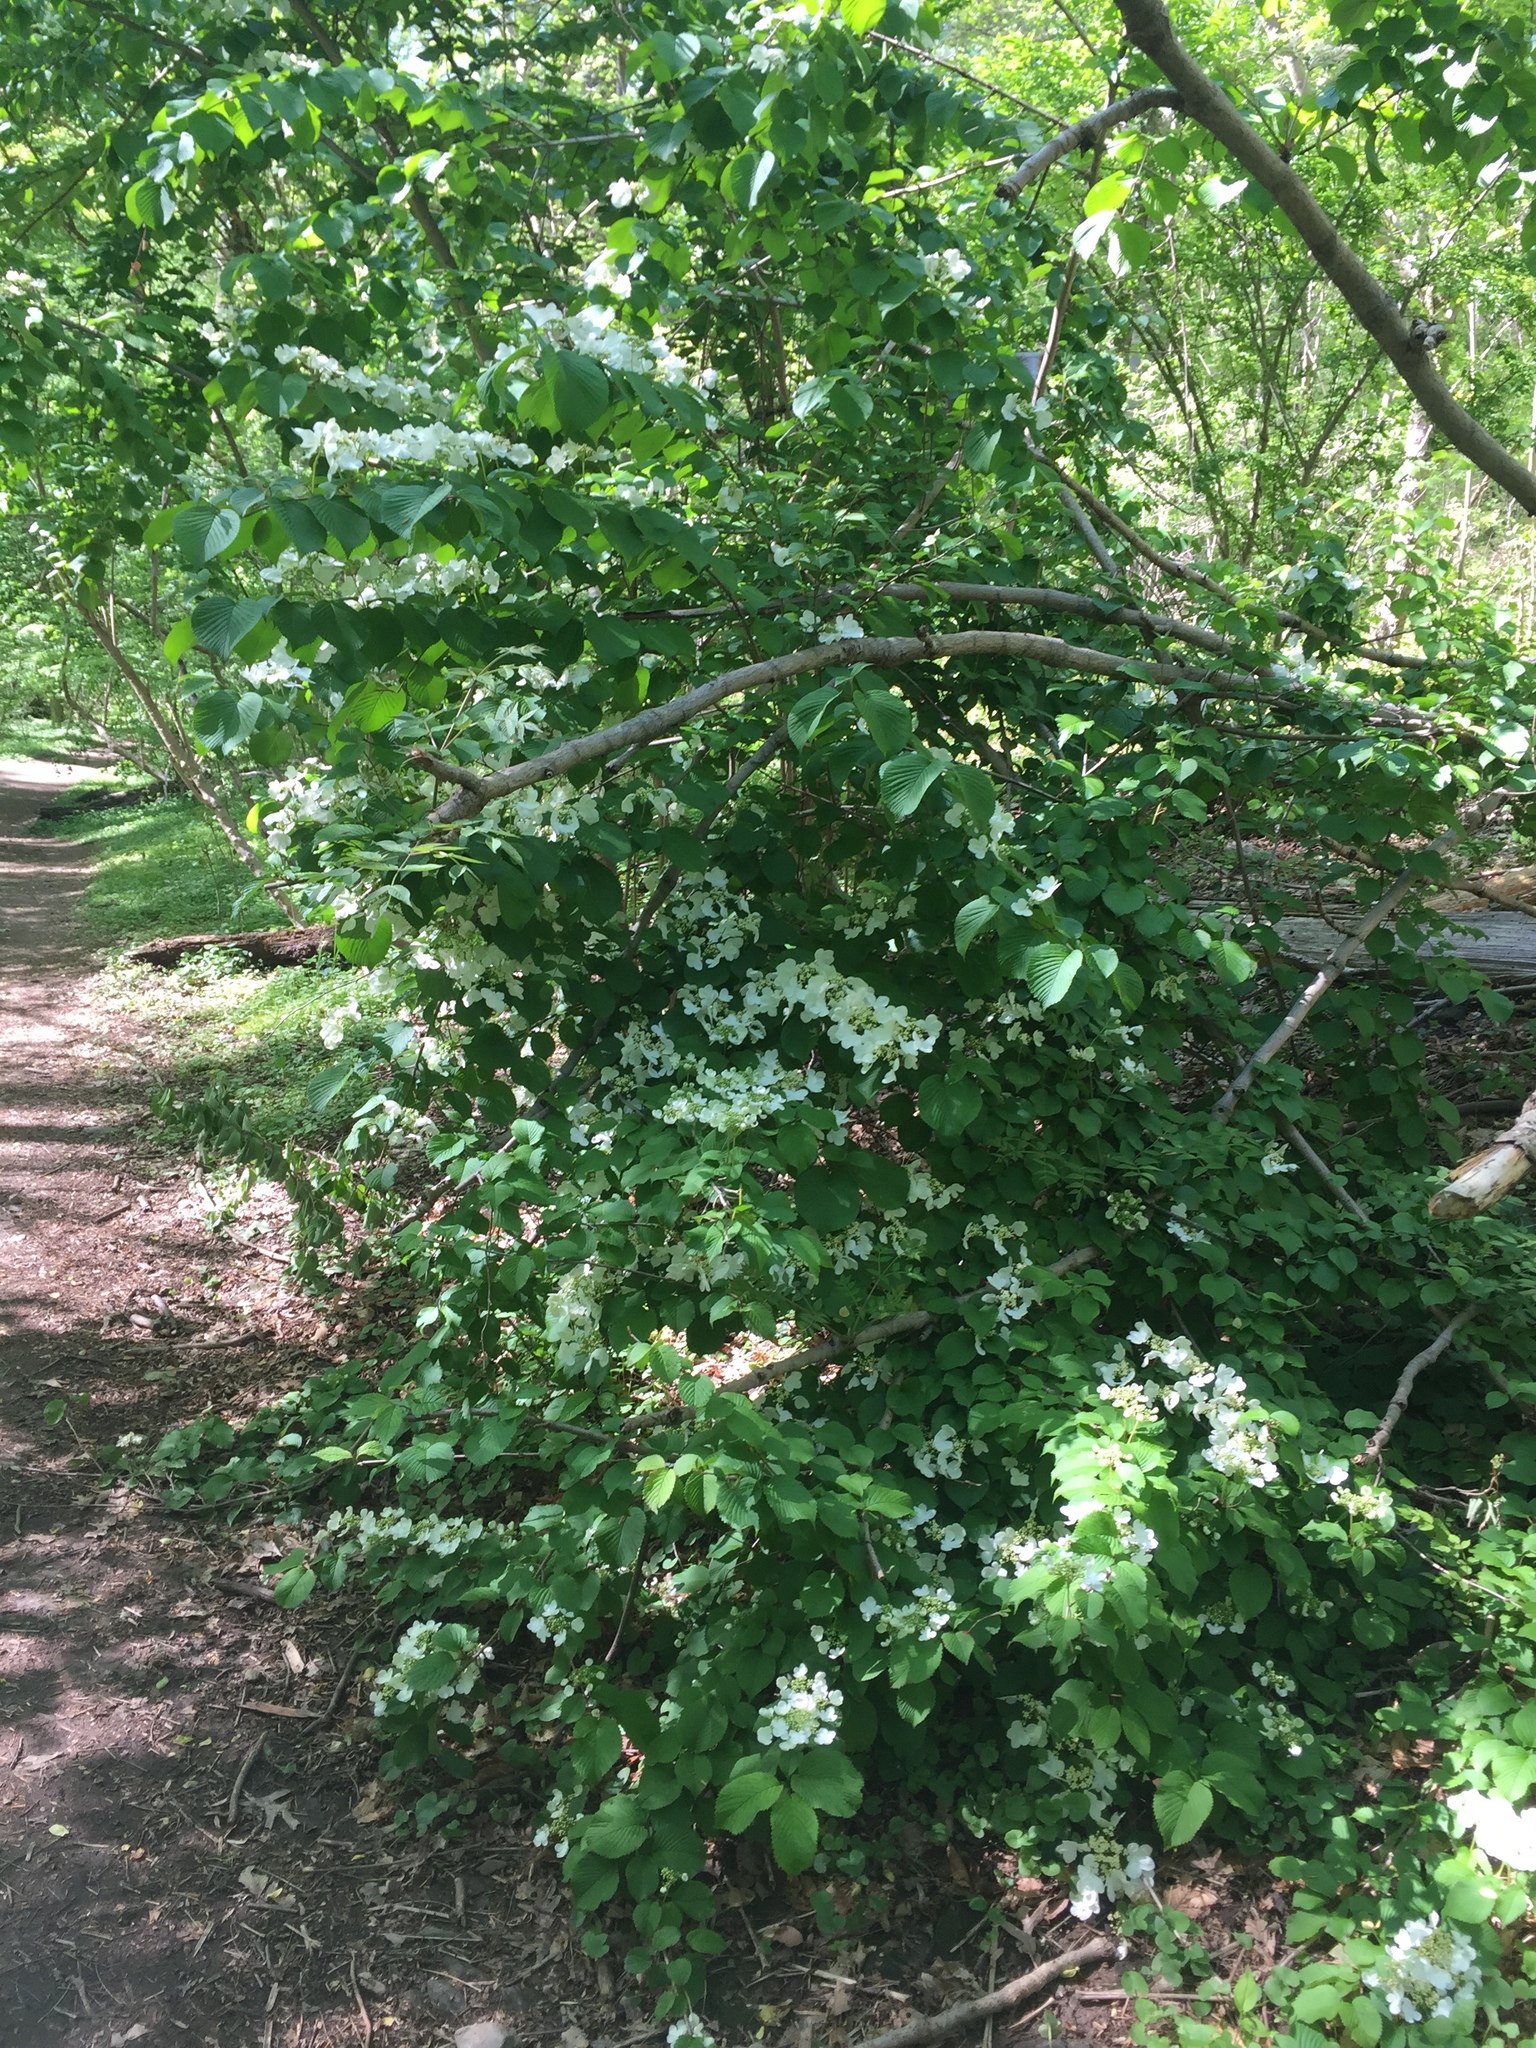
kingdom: Plantae
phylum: Tracheophyta
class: Magnoliopsida
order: Dipsacales
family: Viburnaceae
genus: Viburnum
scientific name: Viburnum plicatum
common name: Japanese snowball
